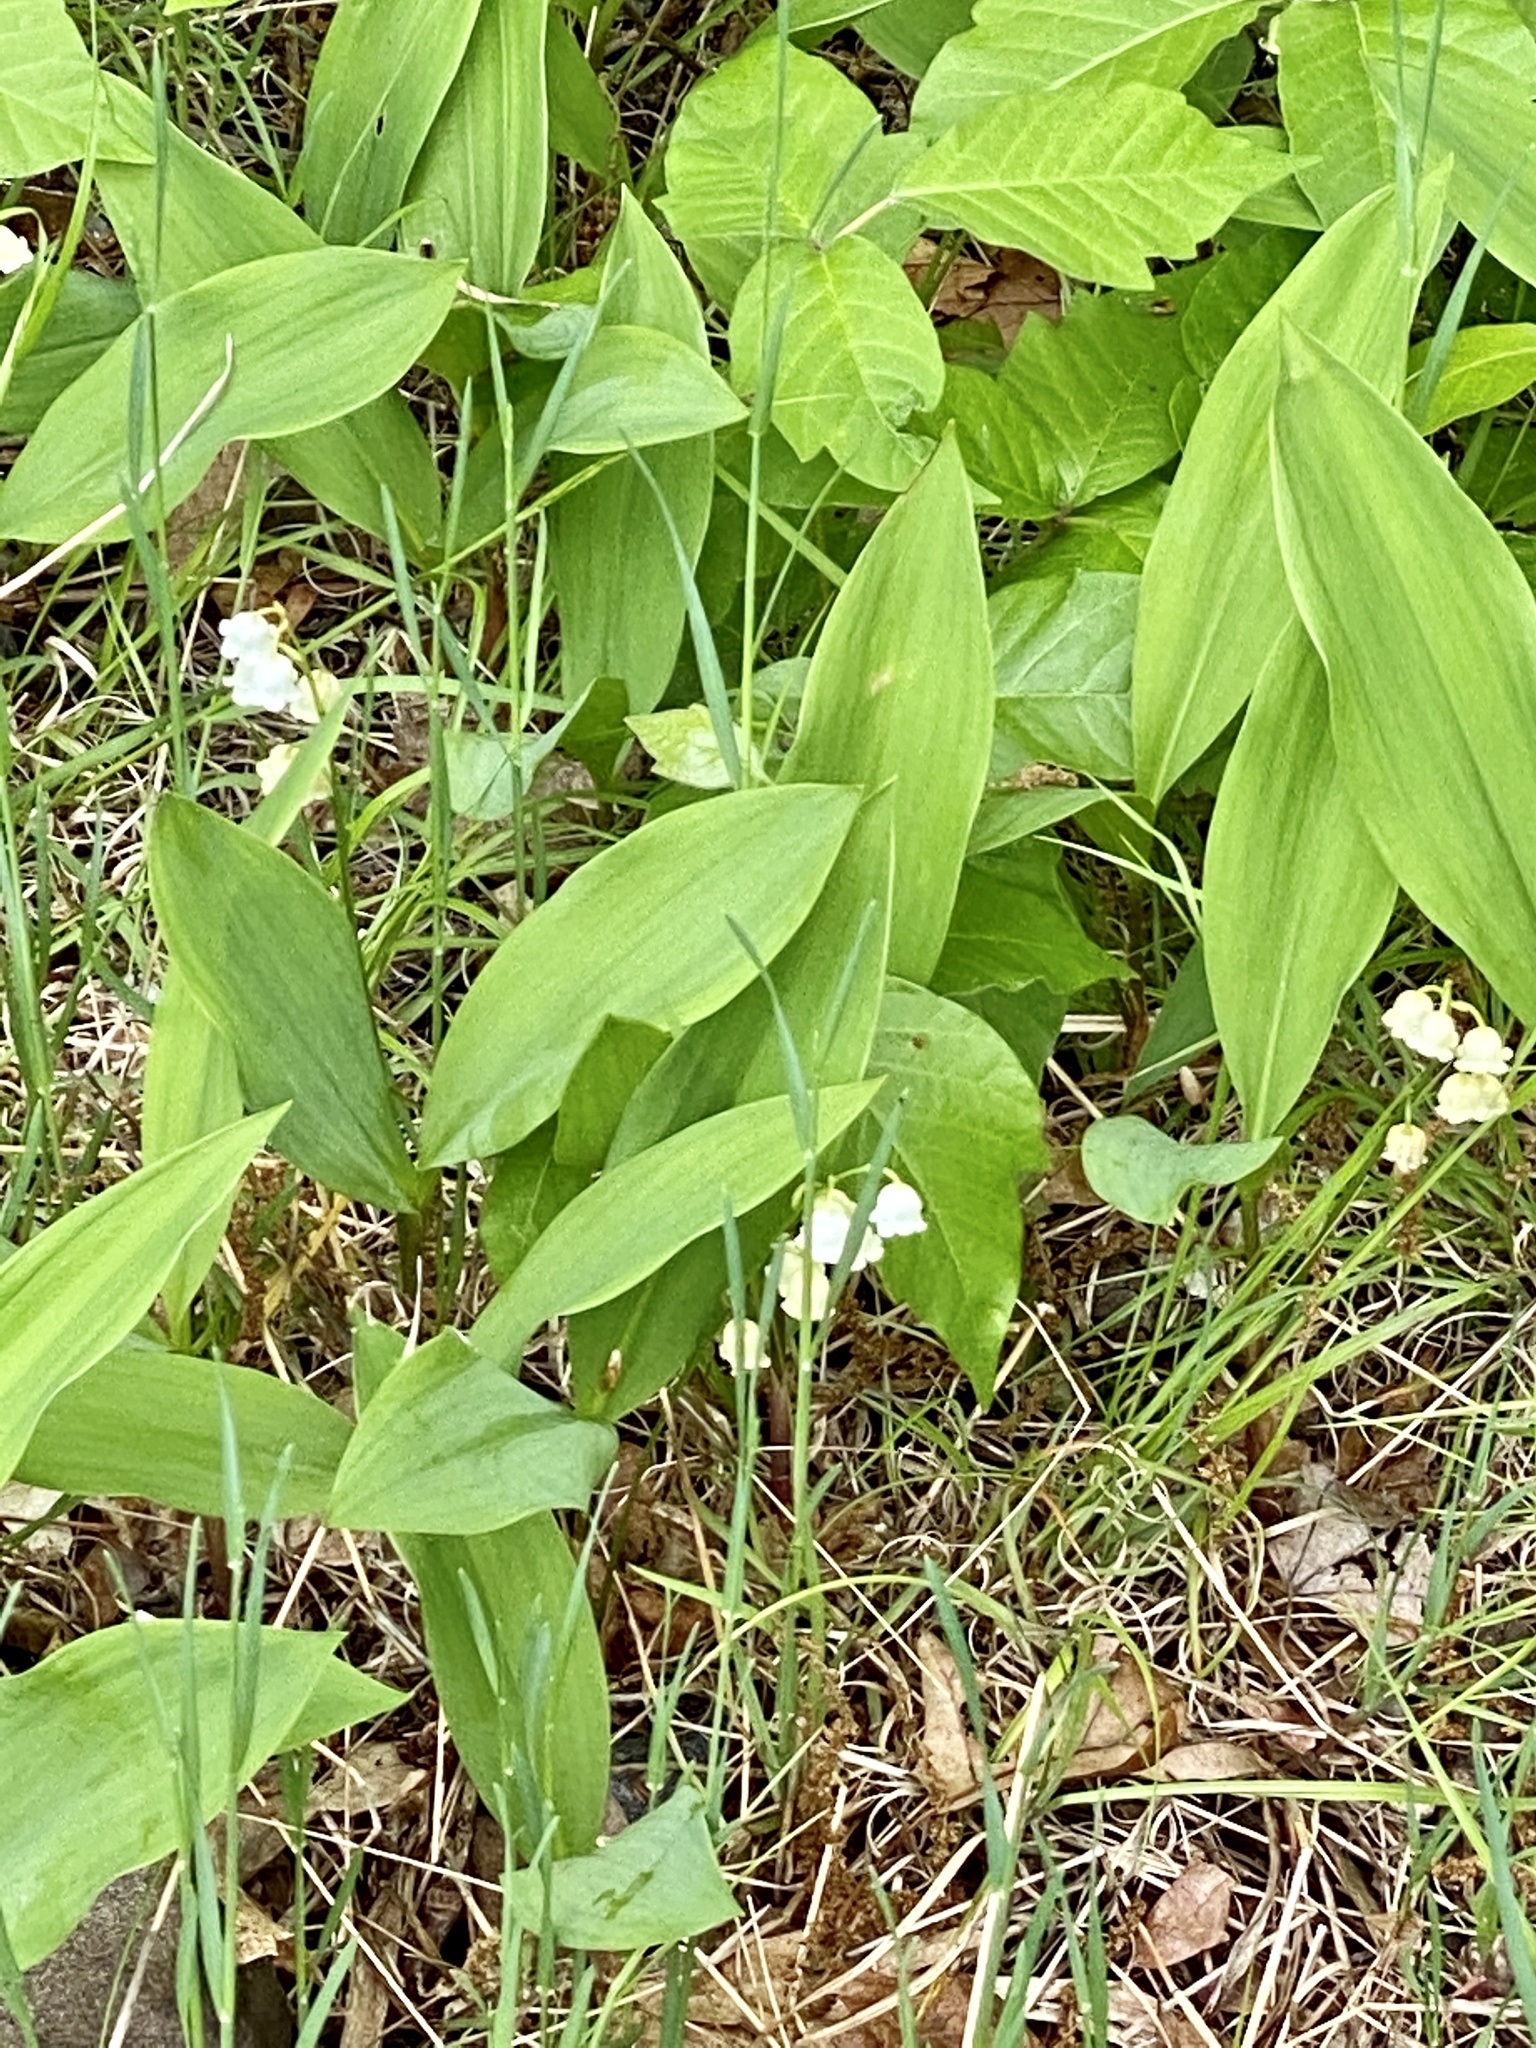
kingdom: Plantae
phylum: Tracheophyta
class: Liliopsida
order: Asparagales
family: Asparagaceae
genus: Convallaria
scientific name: Convallaria majalis
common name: Lily-of-the-valley
